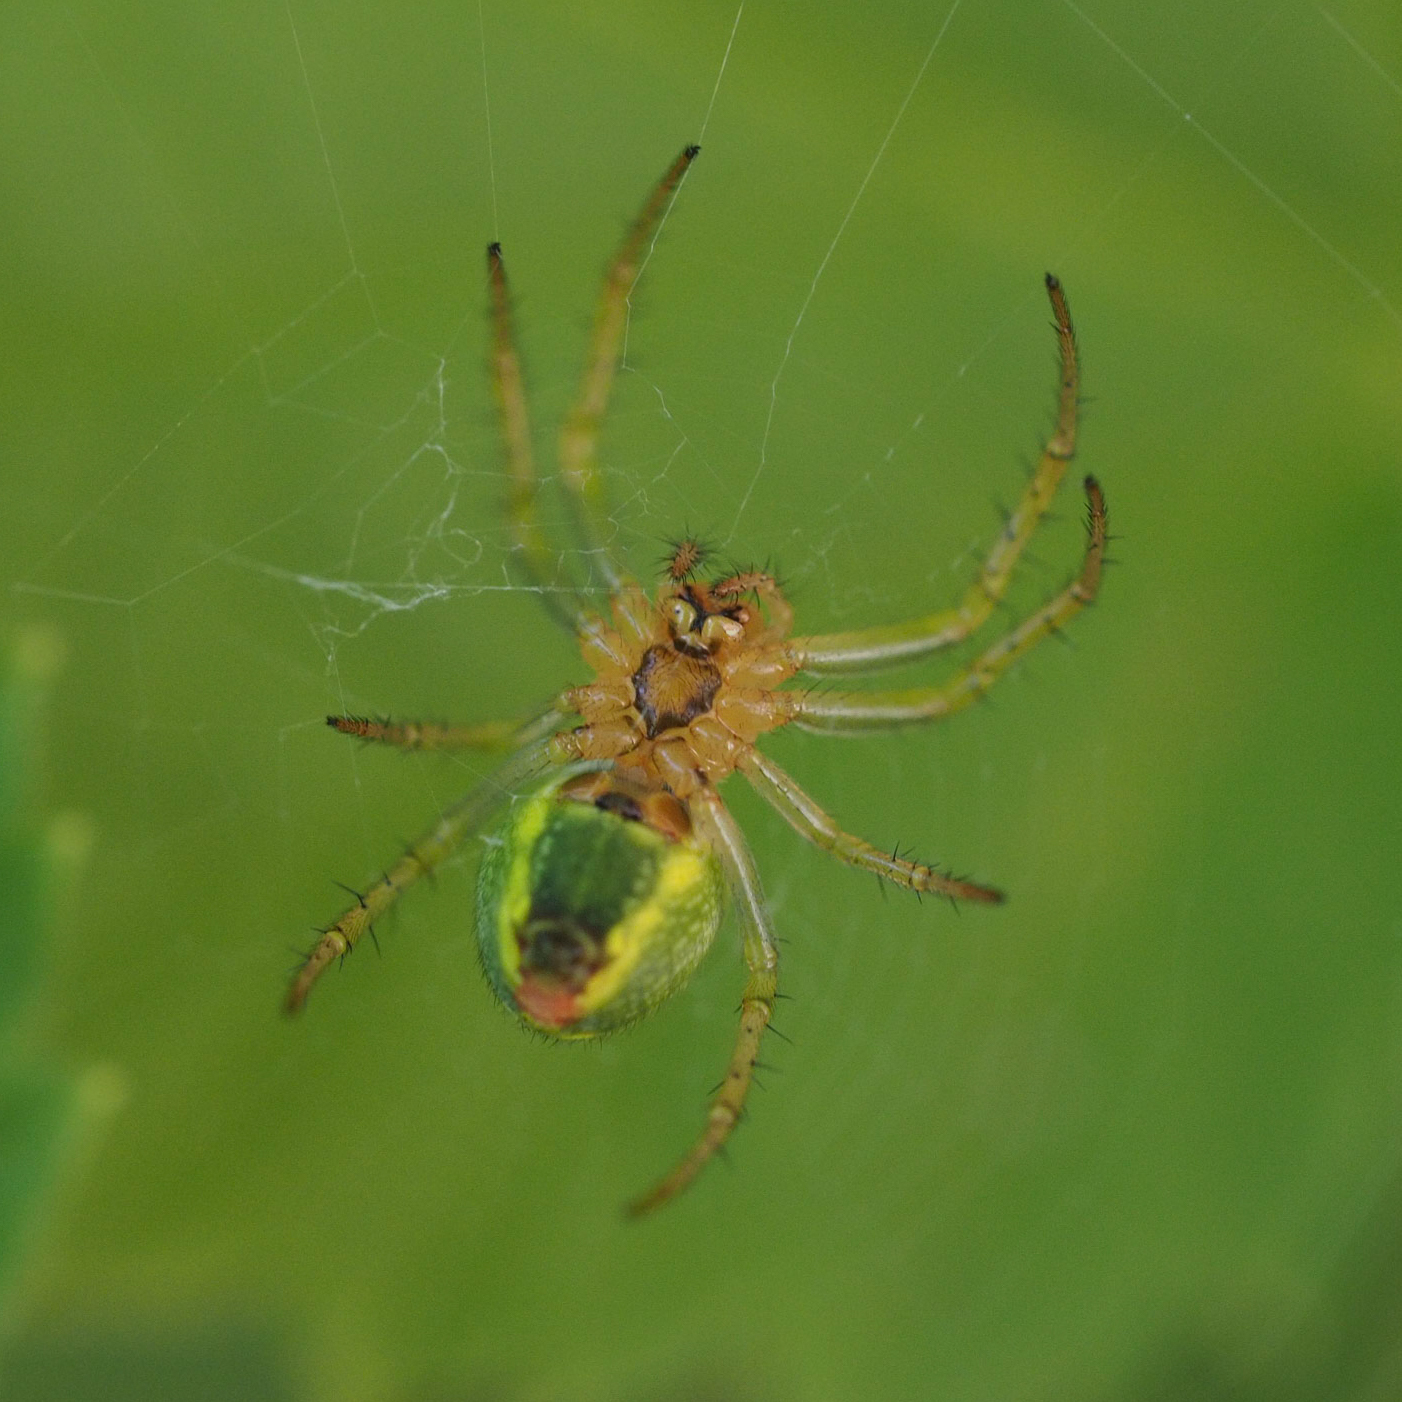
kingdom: Animalia
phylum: Arthropoda
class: Arachnida
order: Araneae
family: Araneidae
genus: Araniella
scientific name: Araniella
